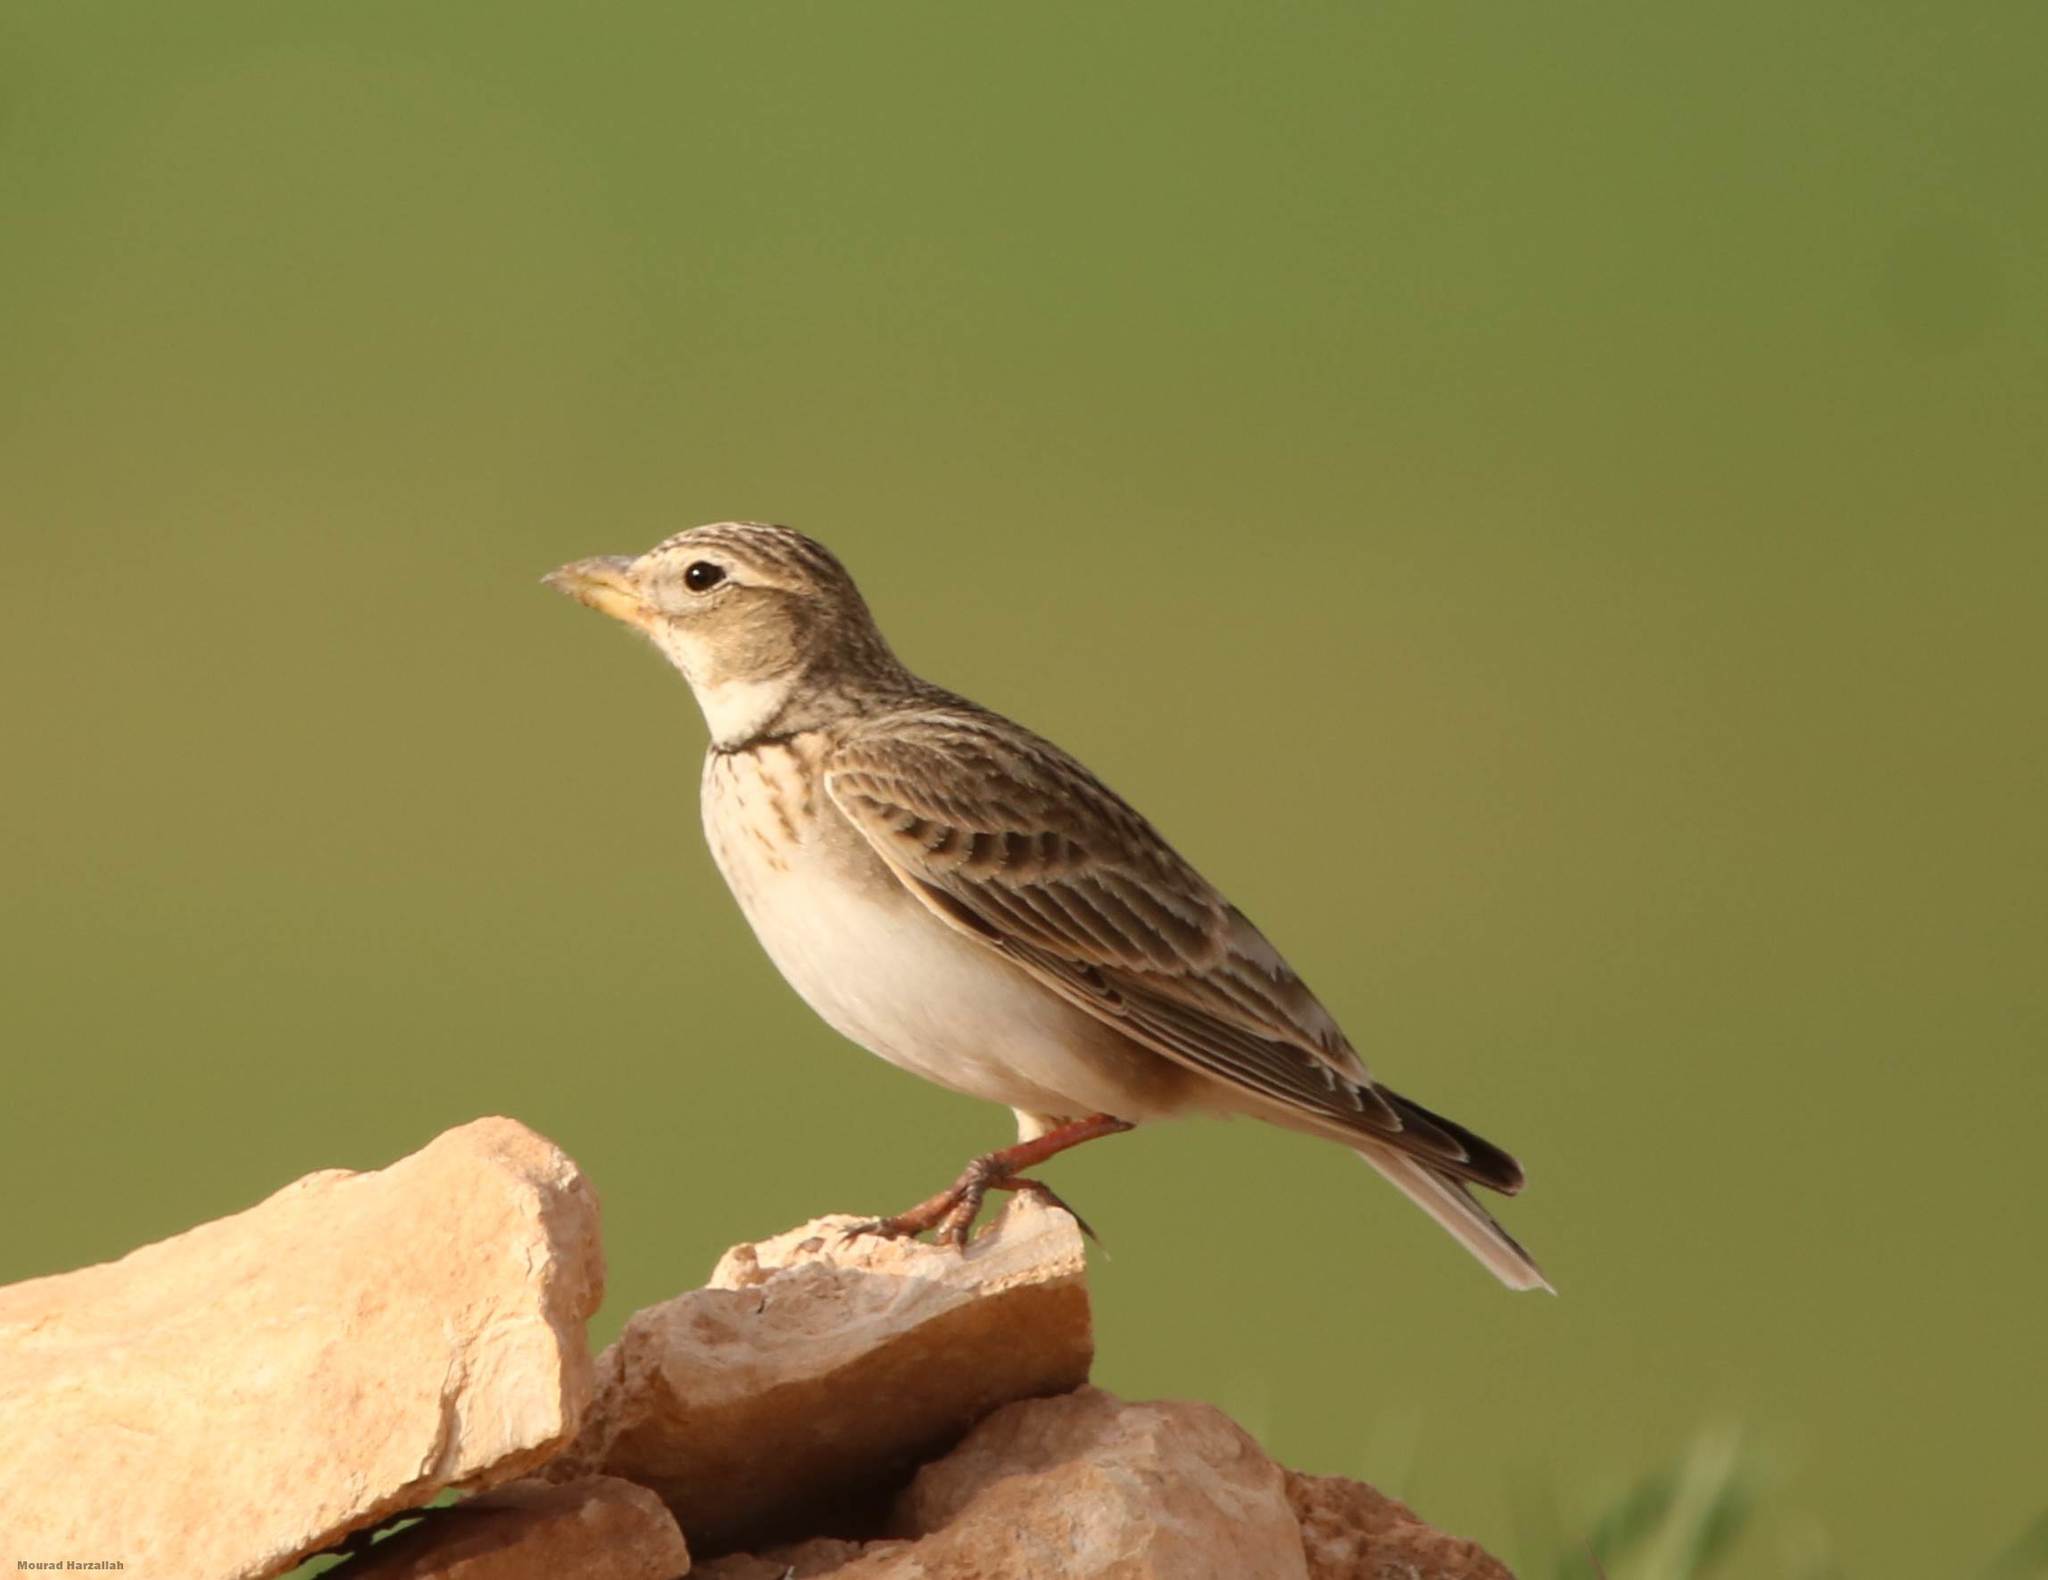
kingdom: Animalia
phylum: Chordata
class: Aves
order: Passeriformes
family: Alaudidae
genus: Melanocorypha
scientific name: Melanocorypha calandra
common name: Calandra lark
